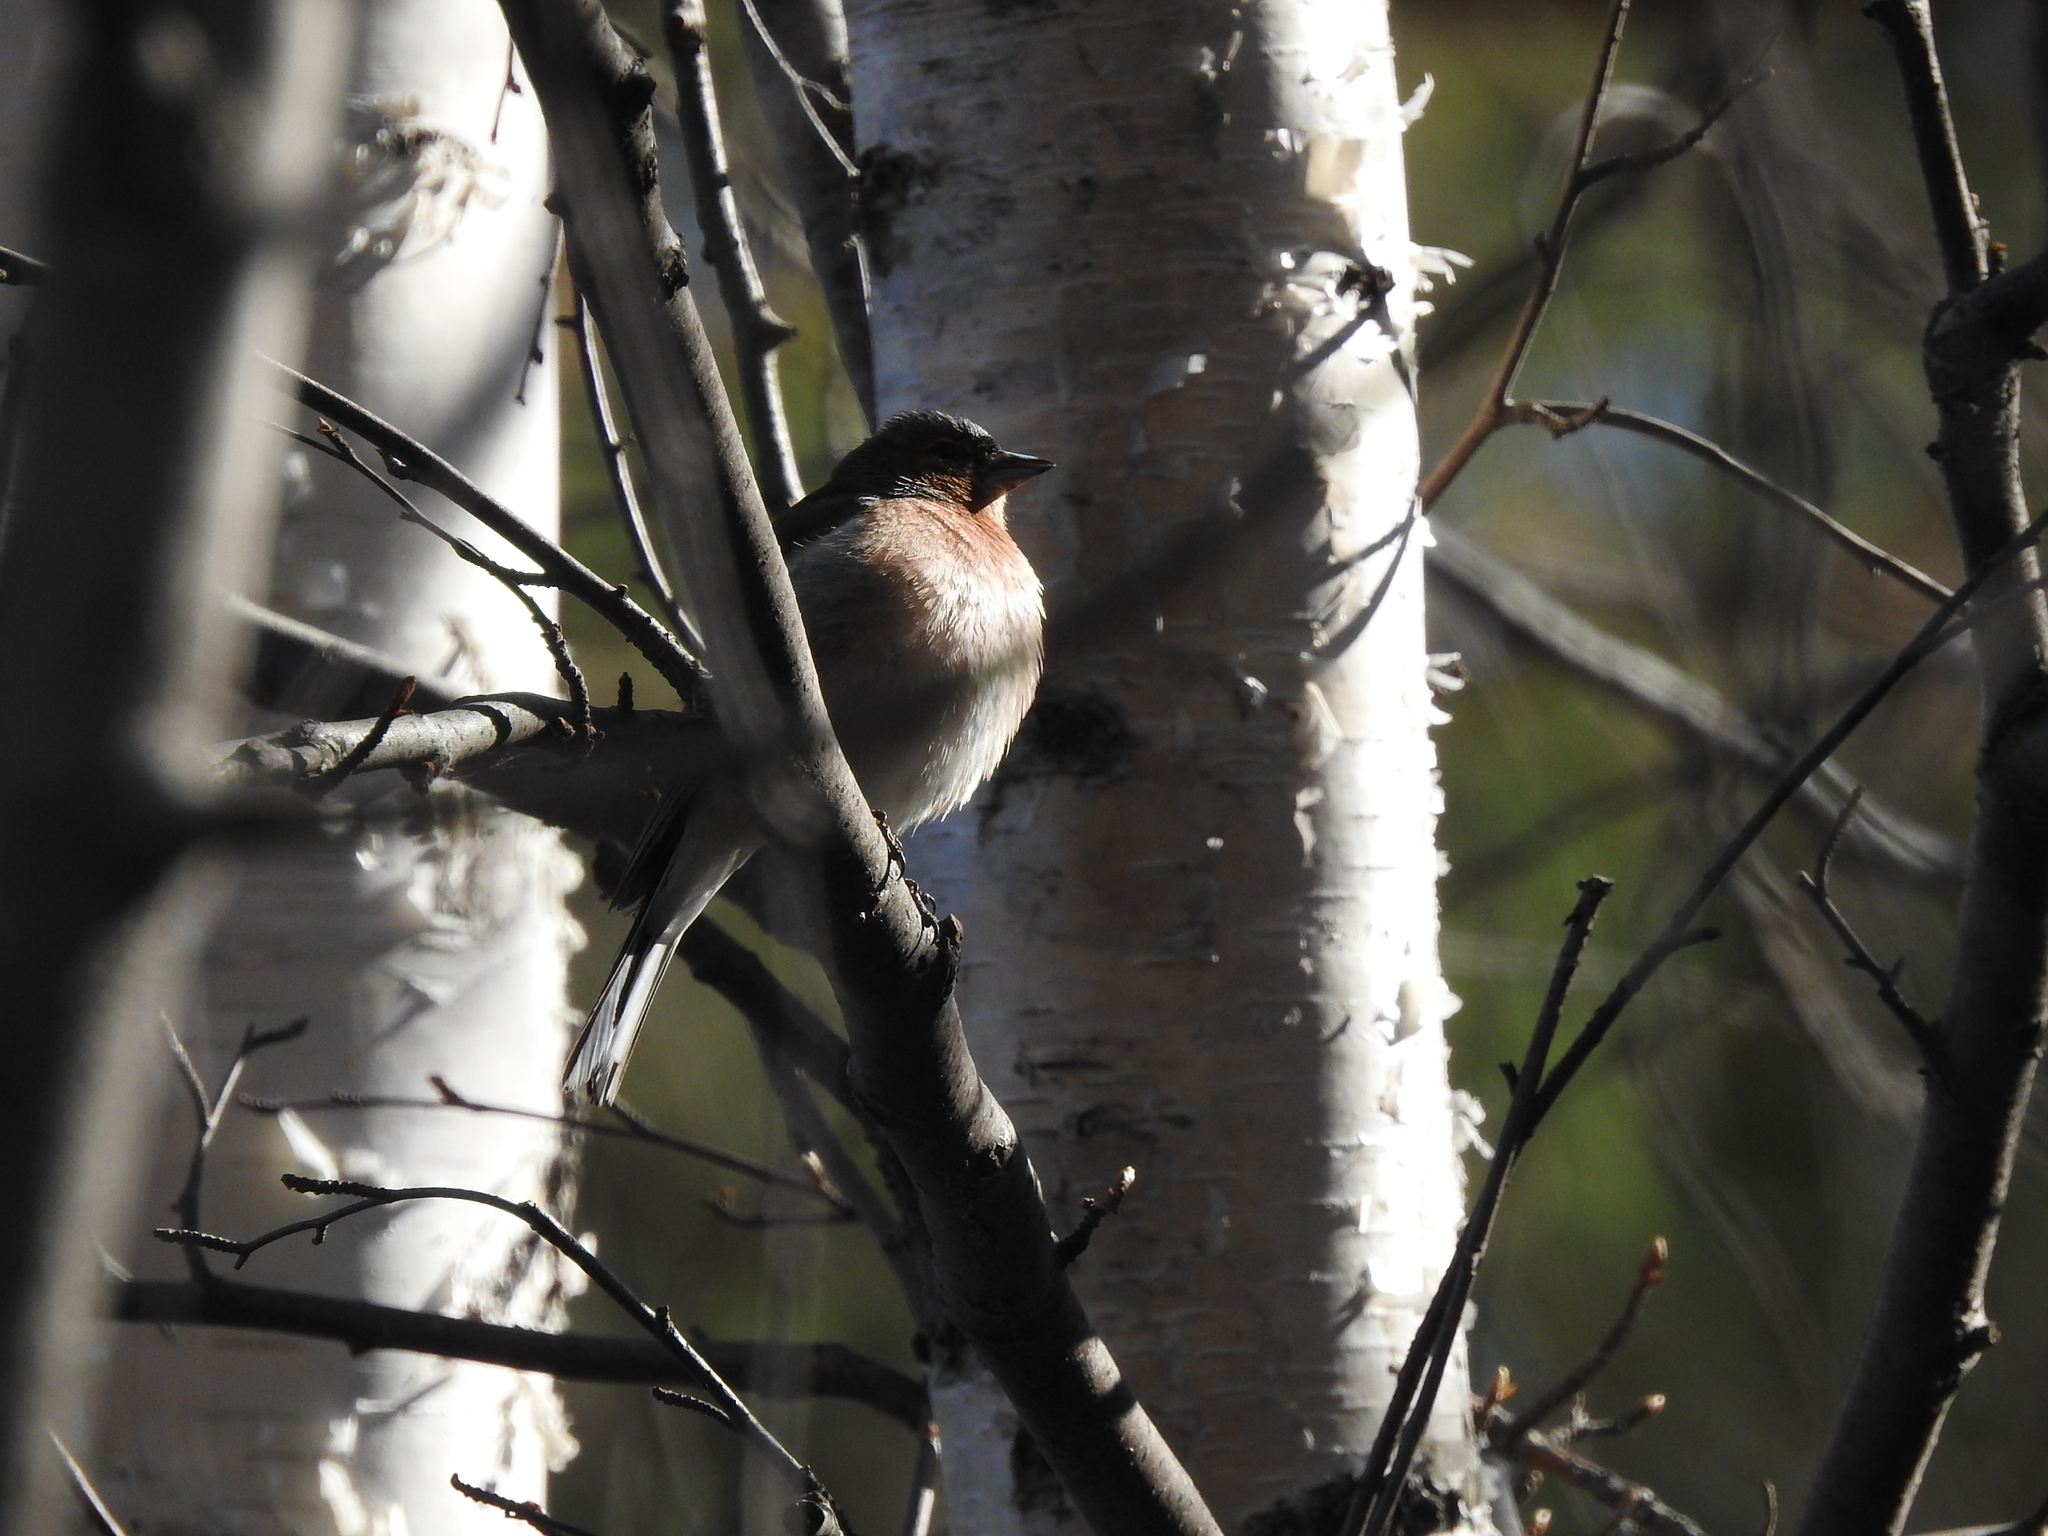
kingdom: Animalia
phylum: Chordata
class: Aves
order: Passeriformes
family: Fringillidae
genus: Fringilla
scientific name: Fringilla coelebs
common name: Common chaffinch
